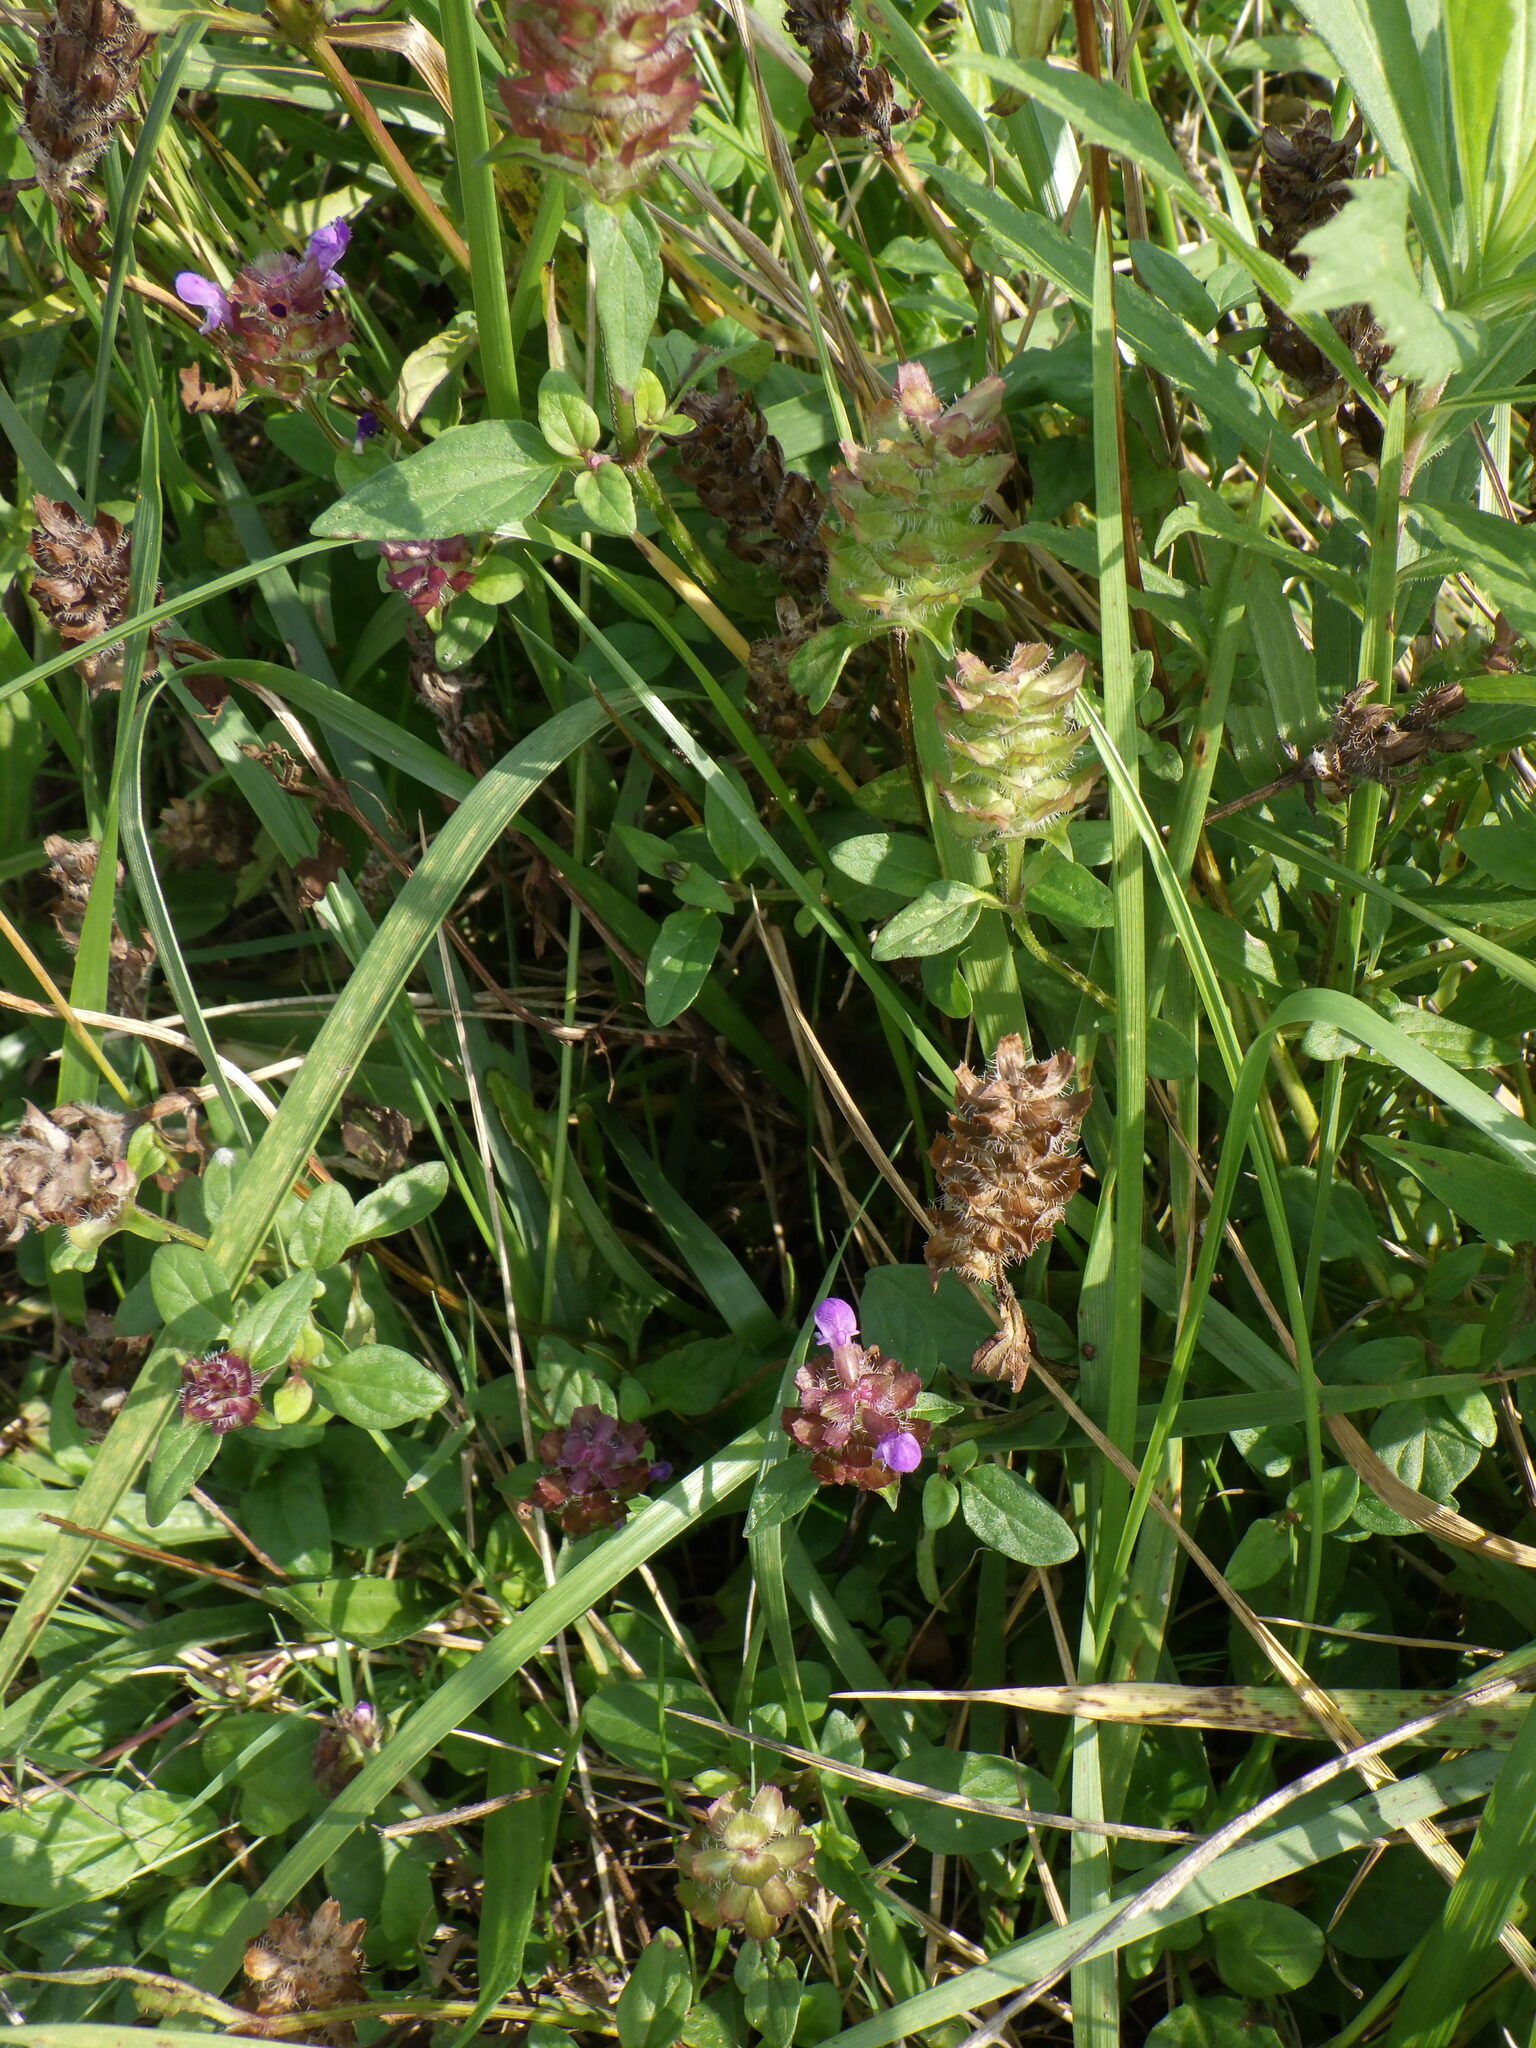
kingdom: Plantae
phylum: Tracheophyta
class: Magnoliopsida
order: Lamiales
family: Lamiaceae
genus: Prunella
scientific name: Prunella vulgaris
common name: Heal-all
